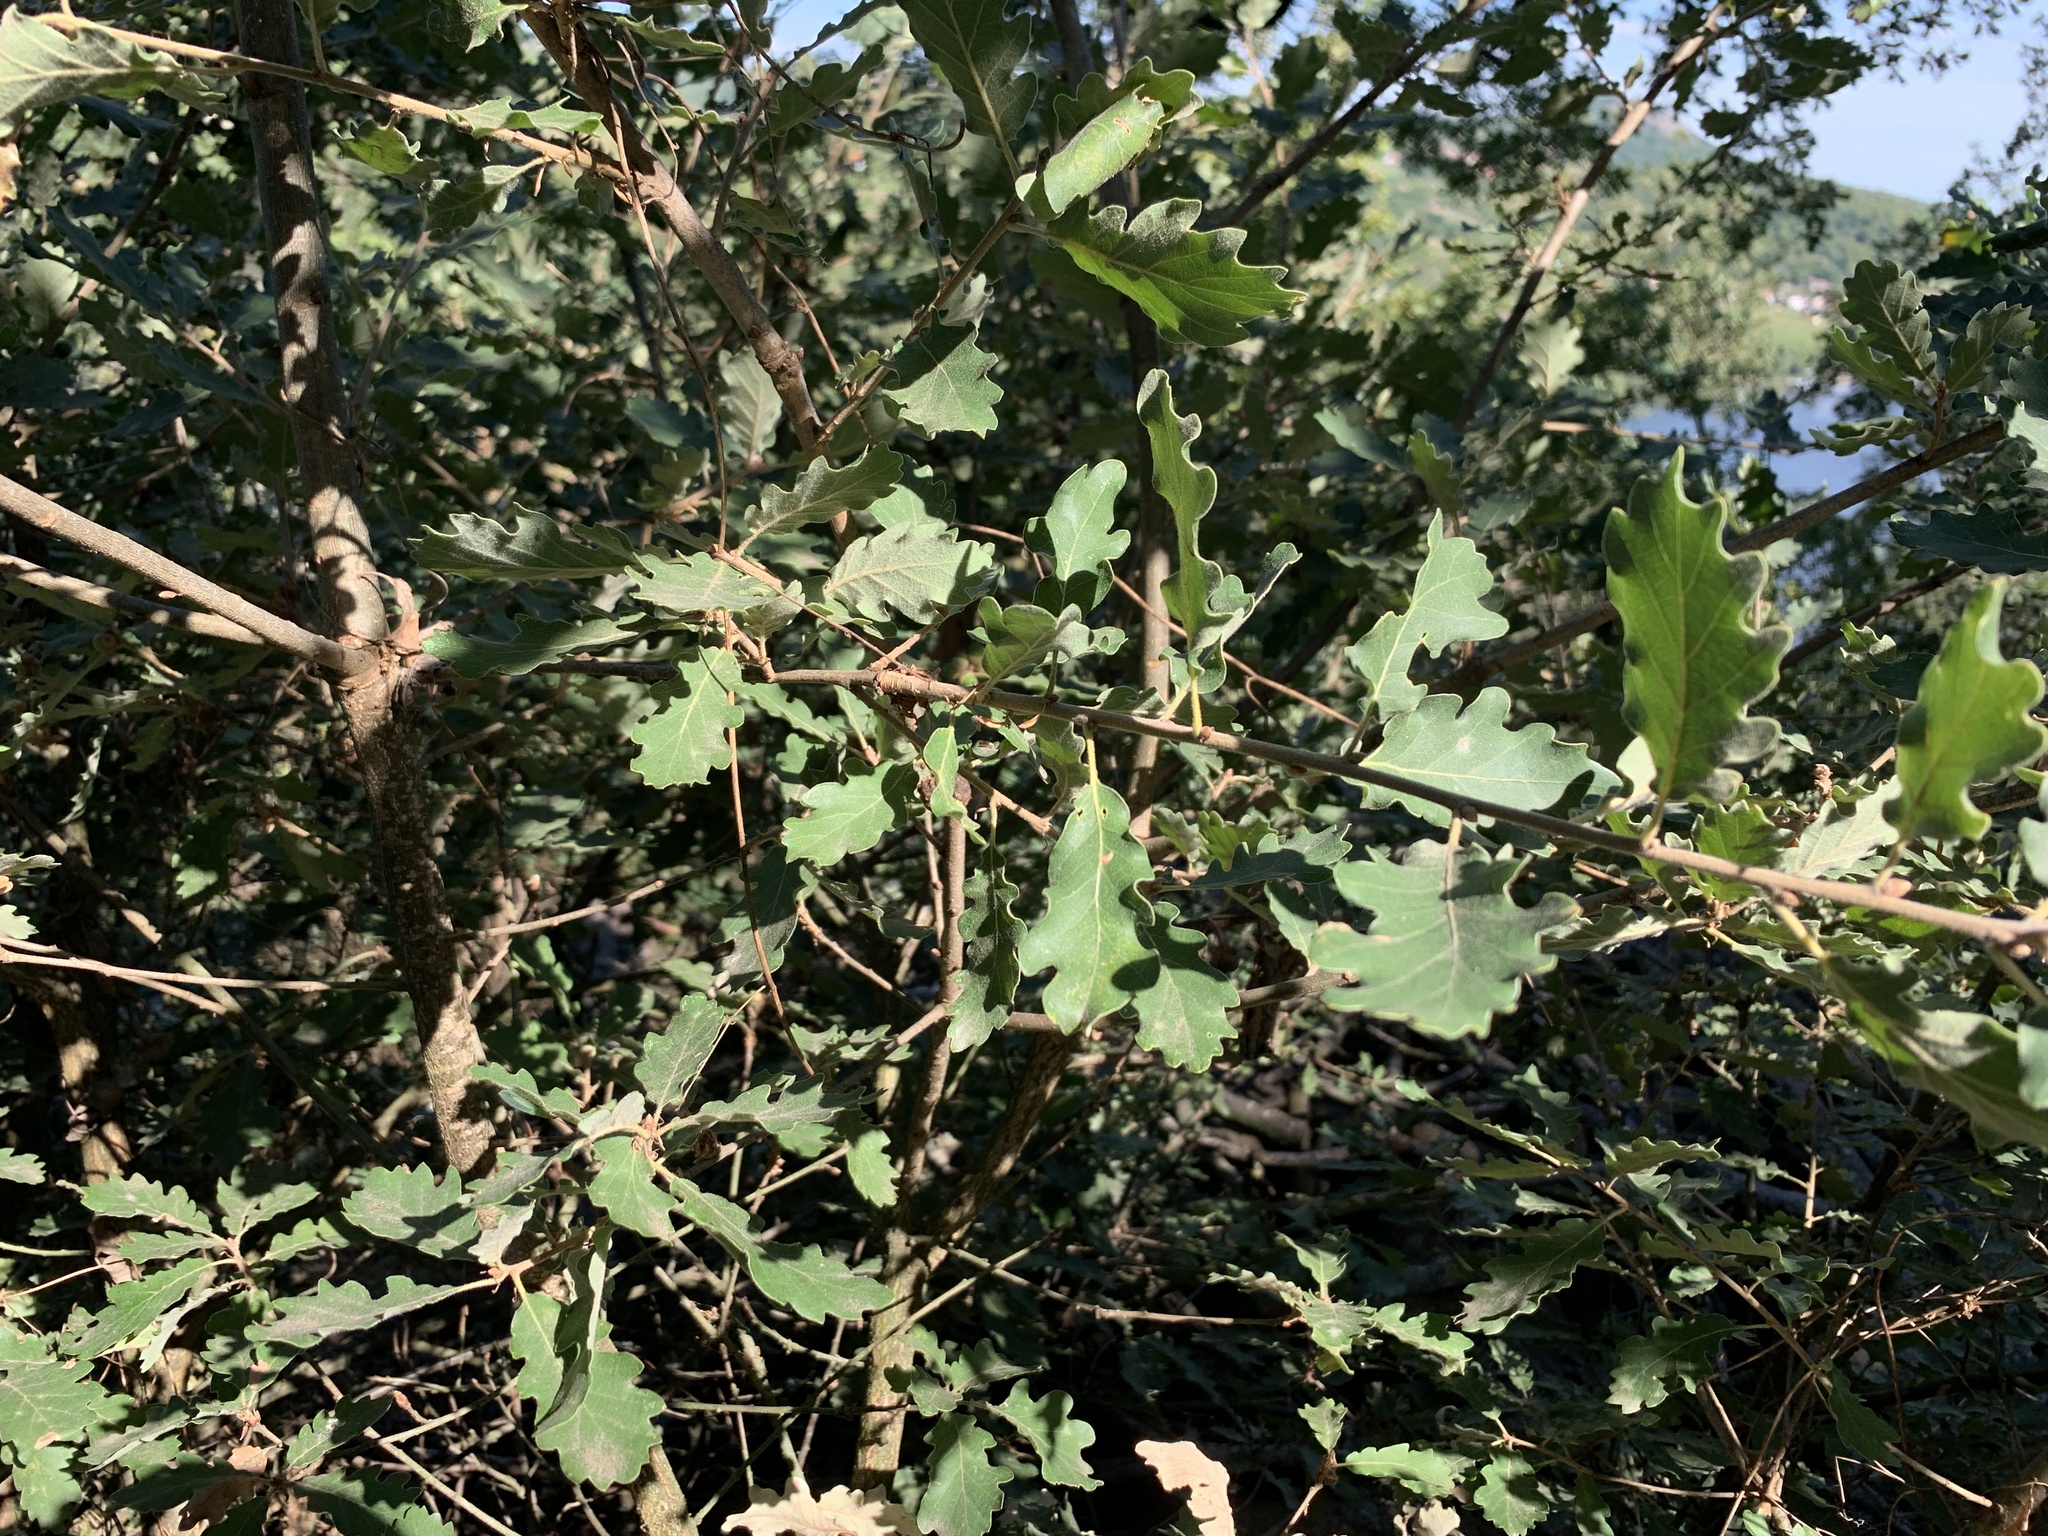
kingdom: Plantae
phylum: Tracheophyta
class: Magnoliopsida
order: Fagales
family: Fagaceae
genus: Quercus
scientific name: Quercus pubescens
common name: Downy oak
